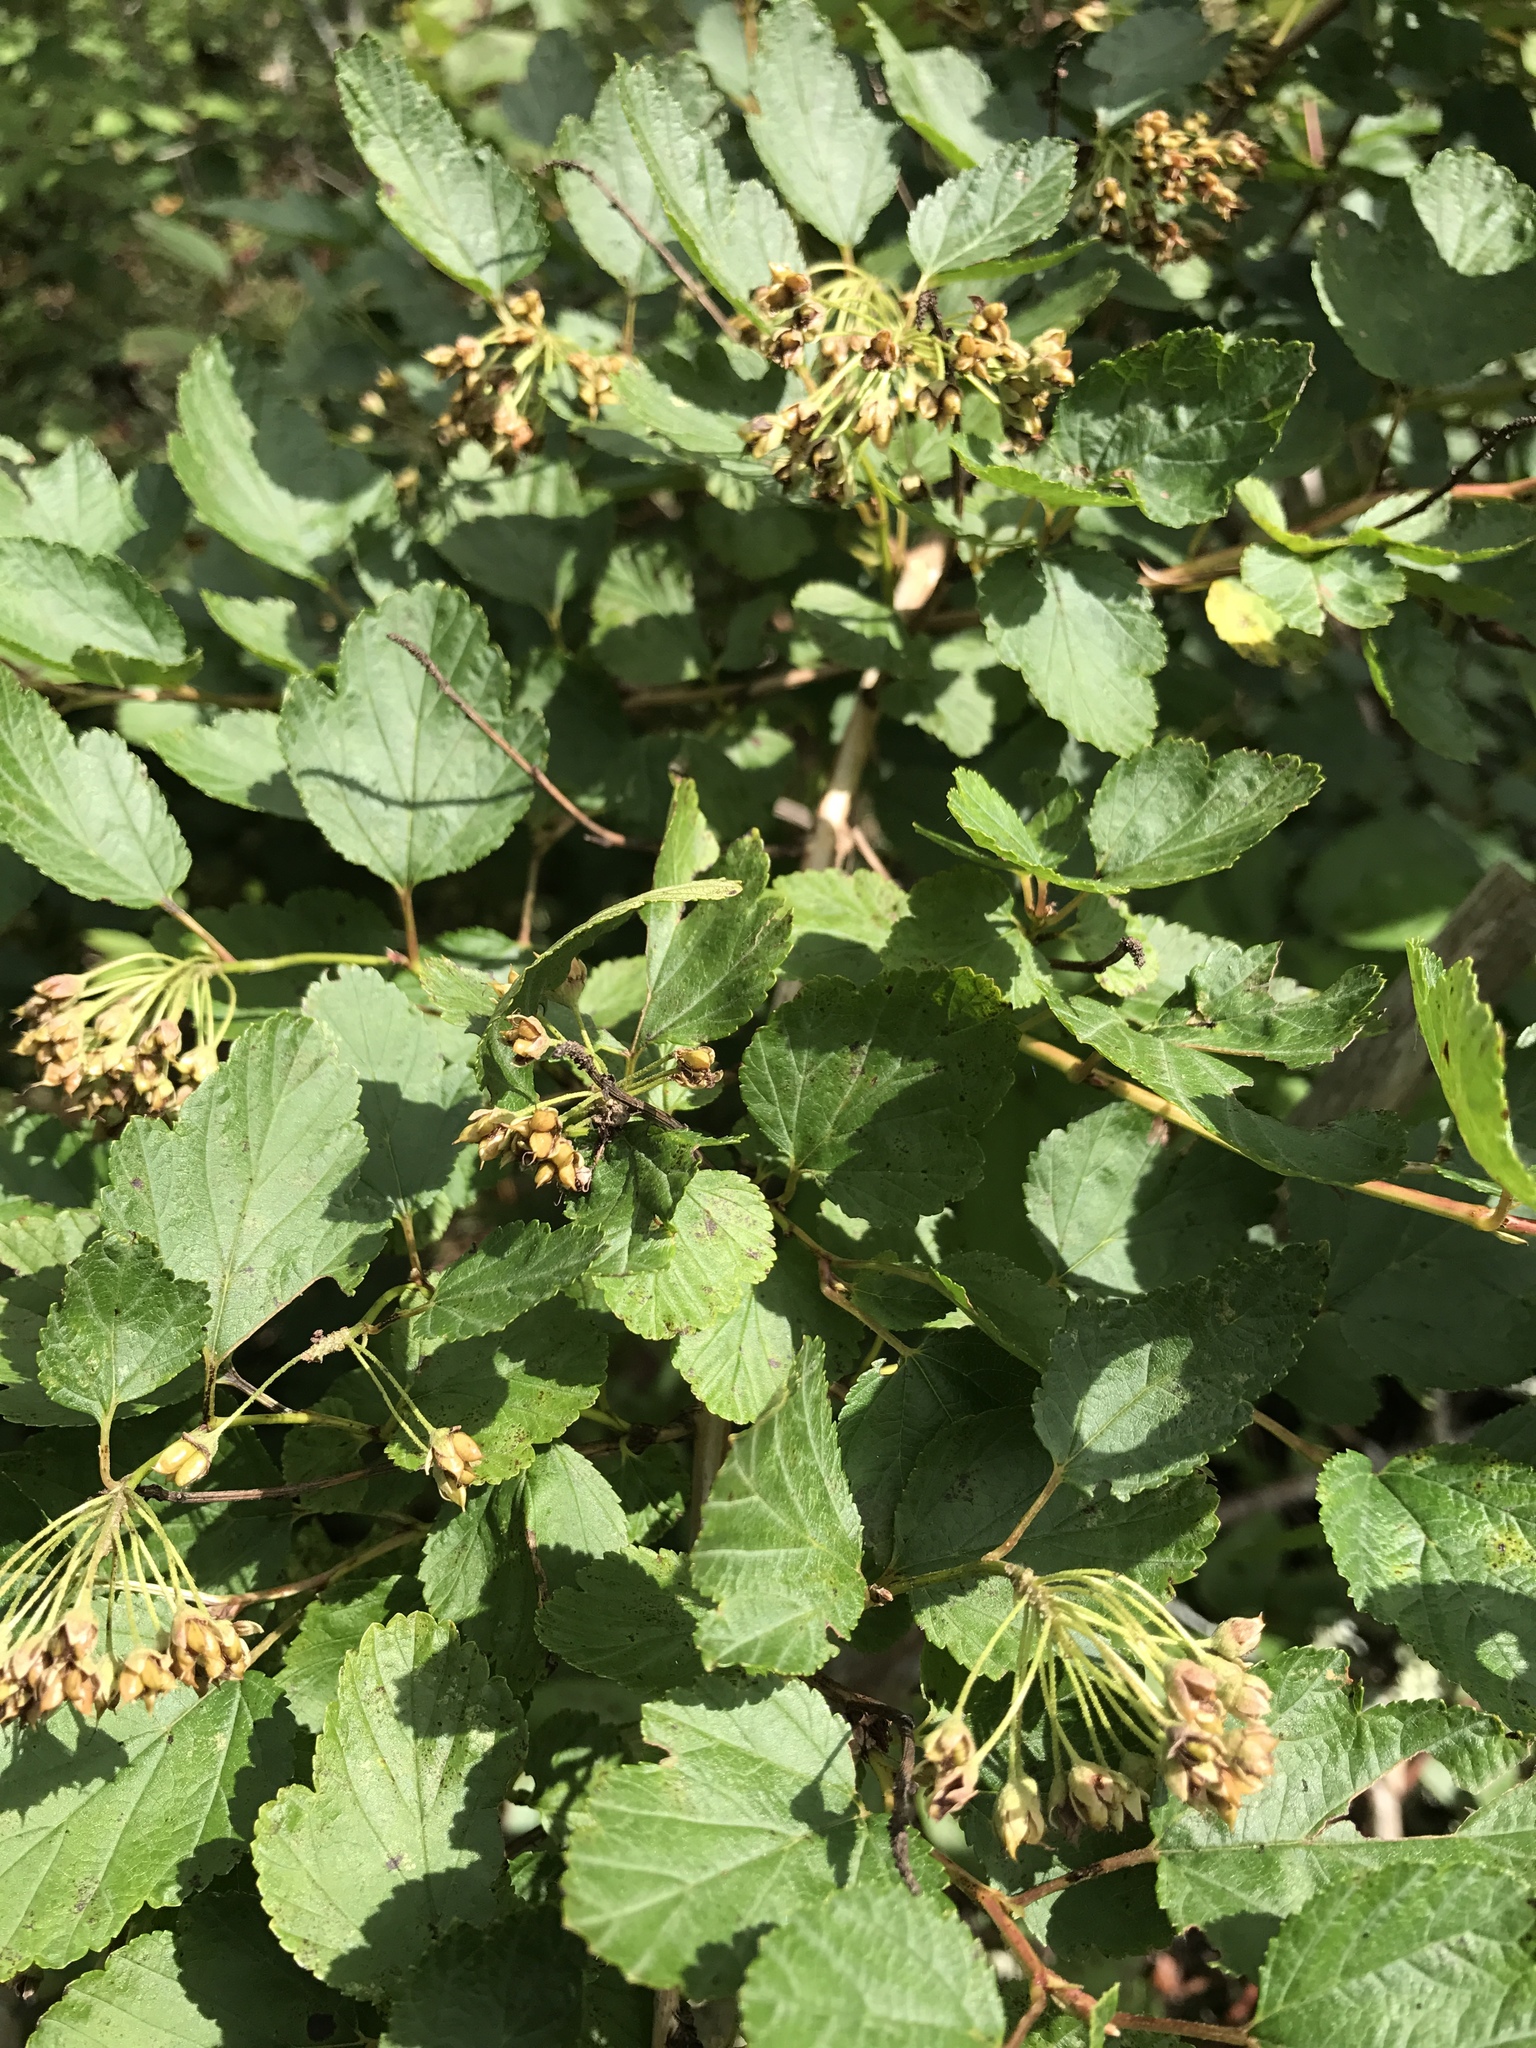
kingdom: Plantae
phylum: Tracheophyta
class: Magnoliopsida
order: Rosales
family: Rosaceae
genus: Physocarpus
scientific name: Physocarpus opulifolius
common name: Ninebark
